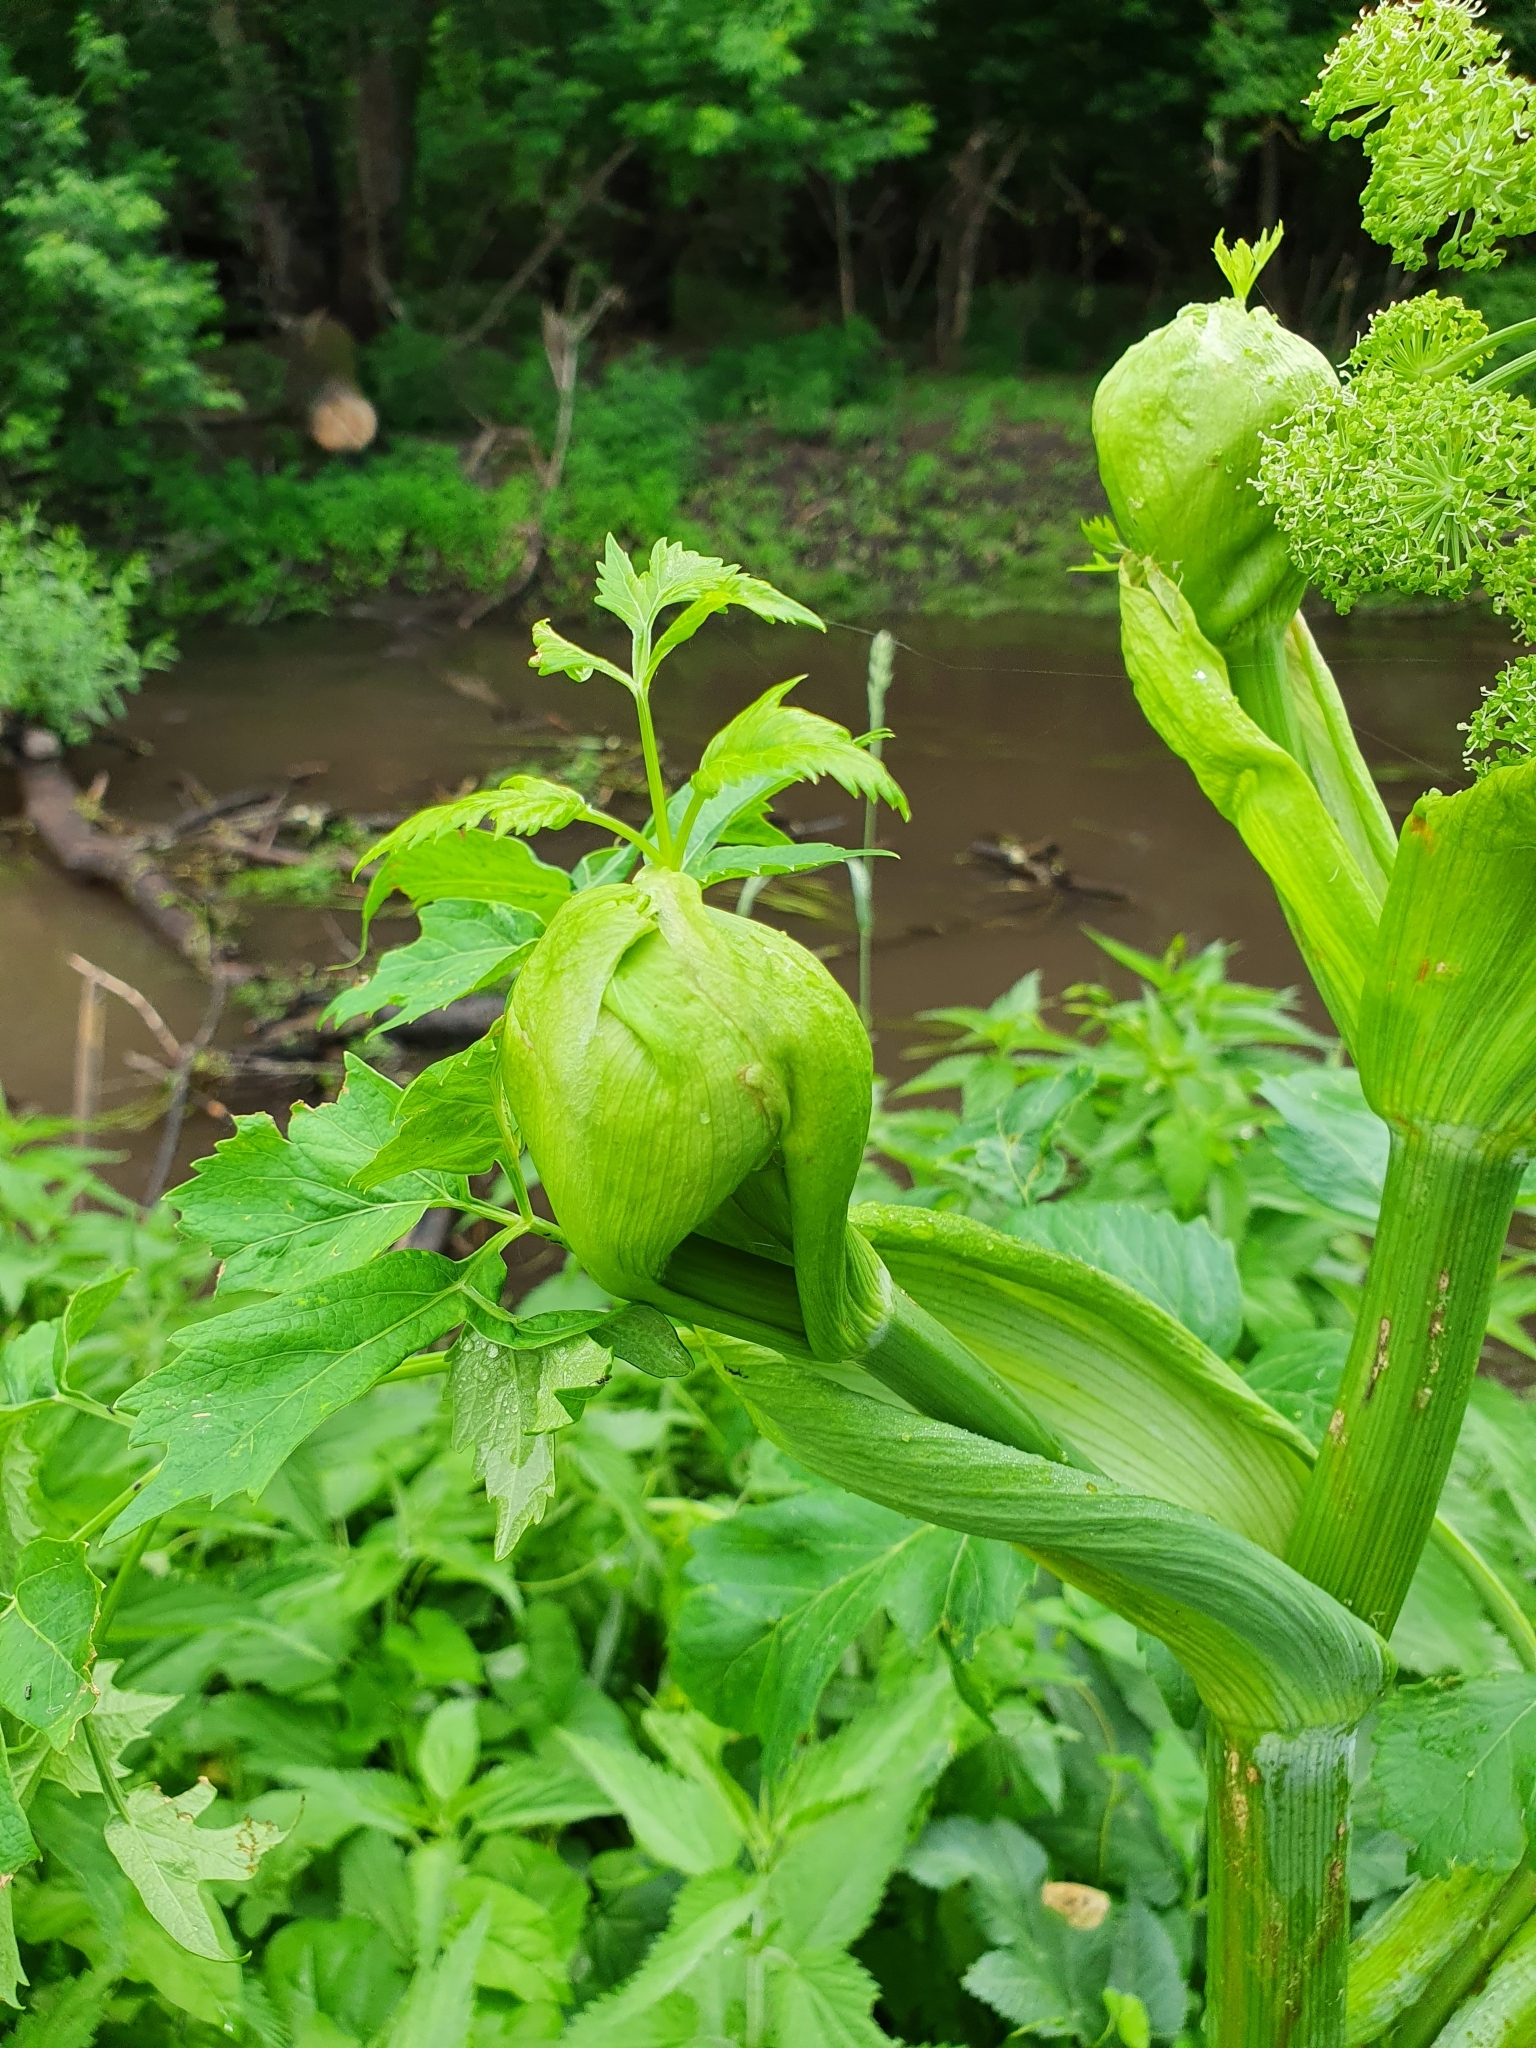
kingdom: Plantae
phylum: Tracheophyta
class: Magnoliopsida
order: Apiales
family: Apiaceae
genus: Angelica
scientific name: Angelica archangelica
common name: Garden angelica
